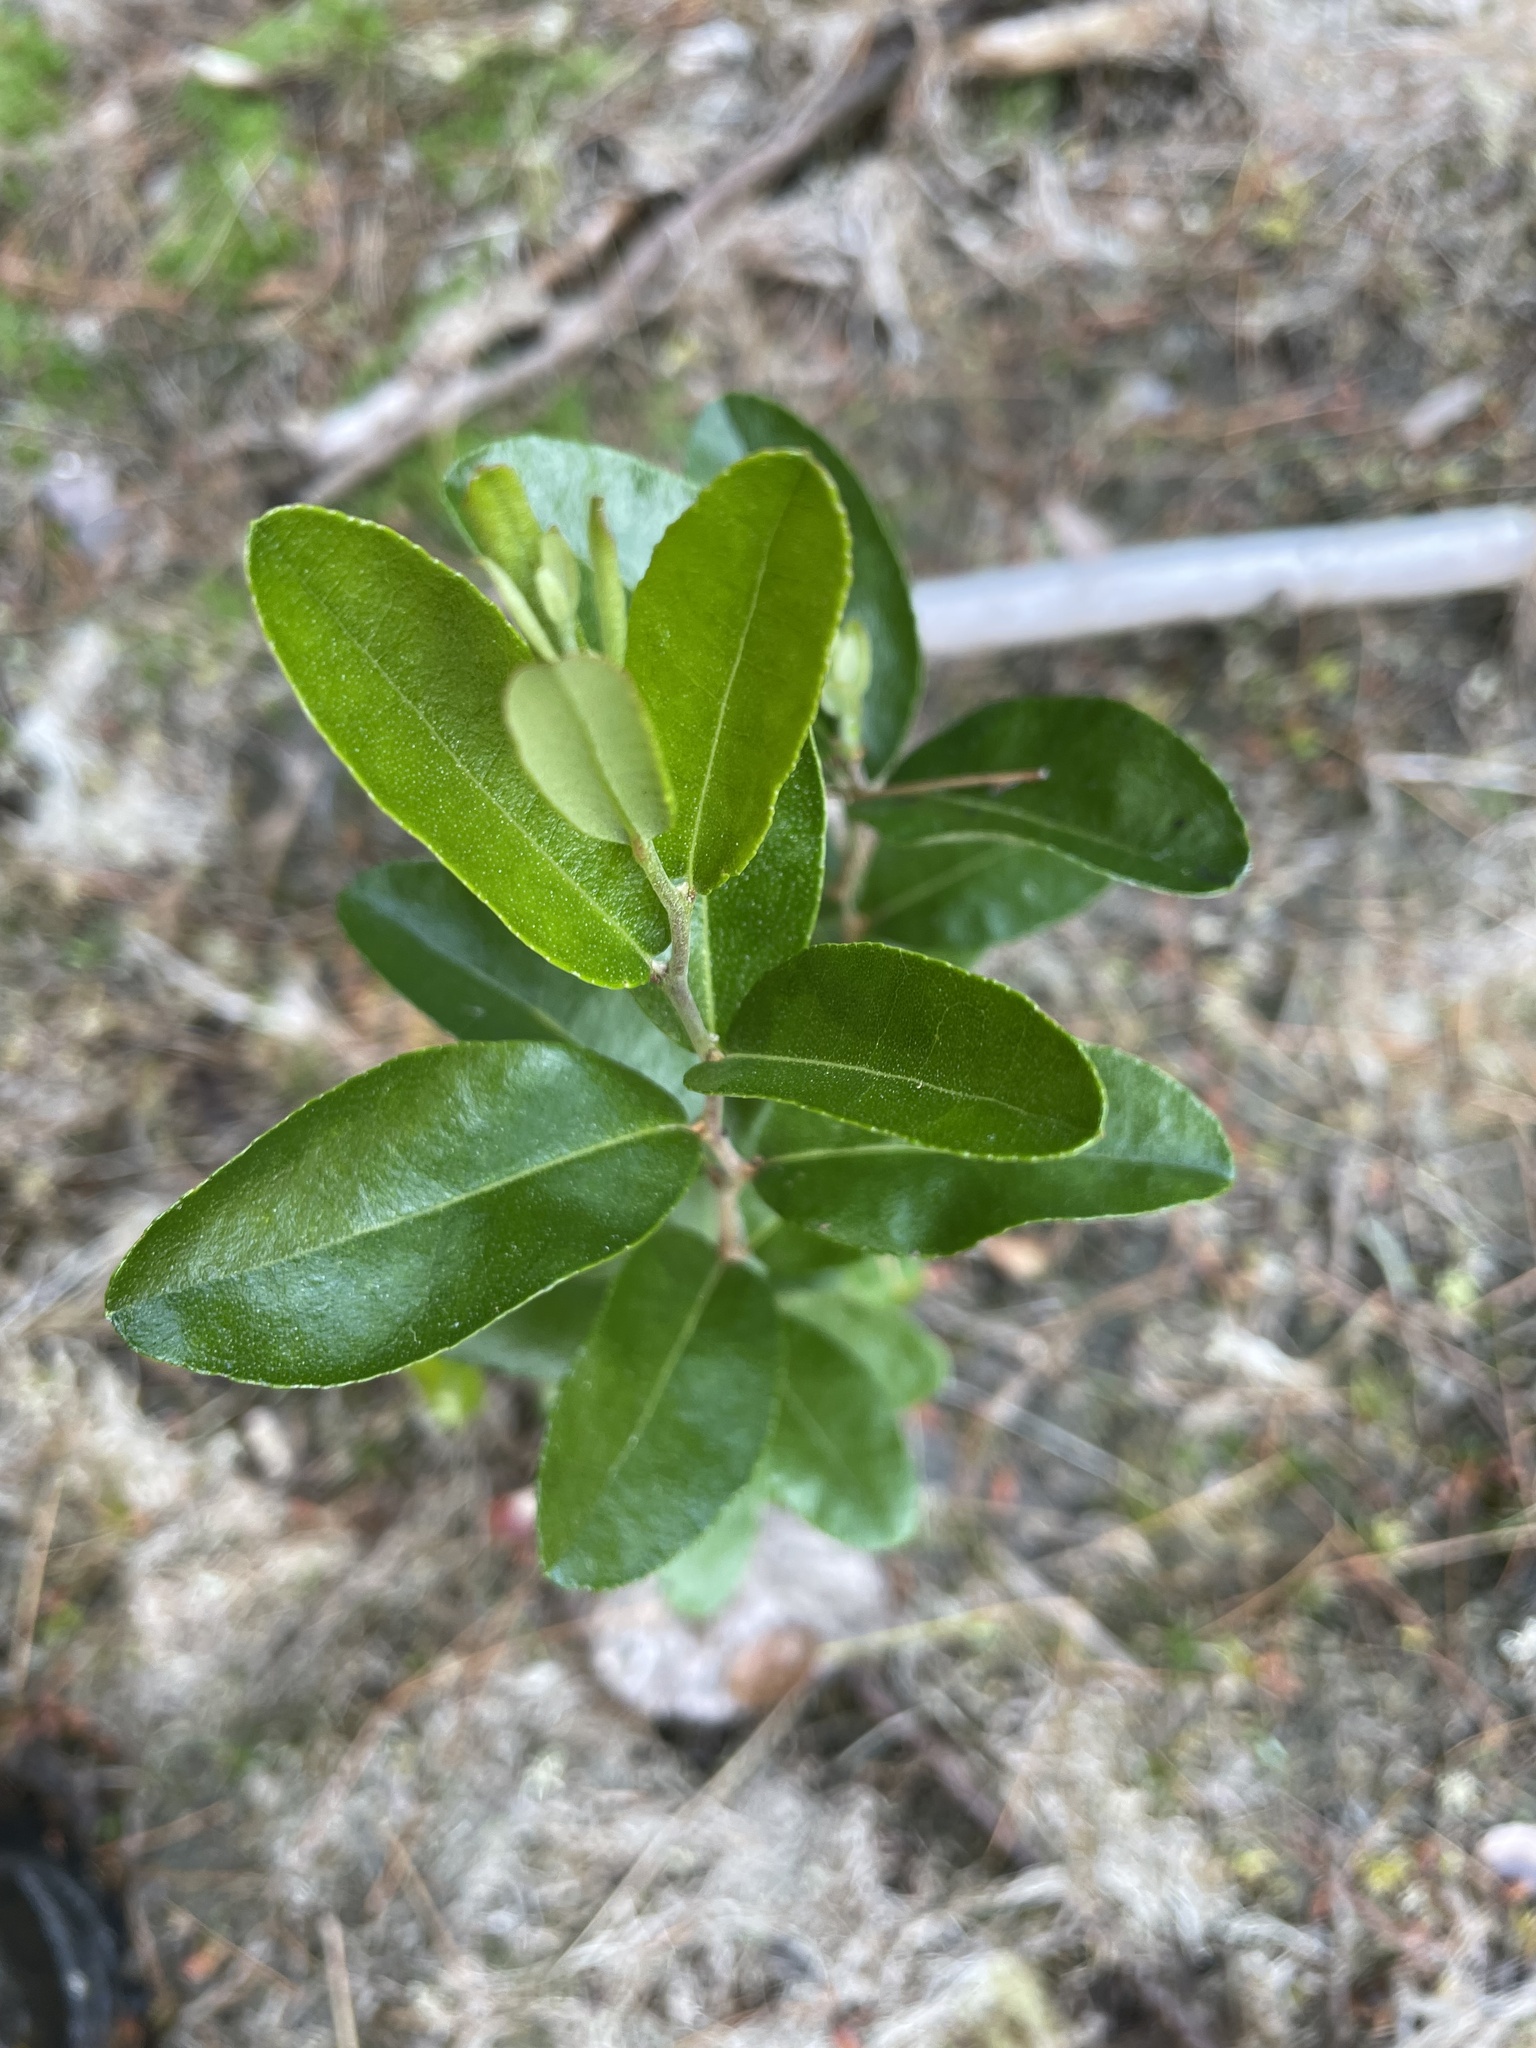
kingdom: Plantae
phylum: Tracheophyta
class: Magnoliopsida
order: Ericales
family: Ericaceae
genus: Chamaedaphne
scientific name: Chamaedaphne calyculata
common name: Leatherleaf
